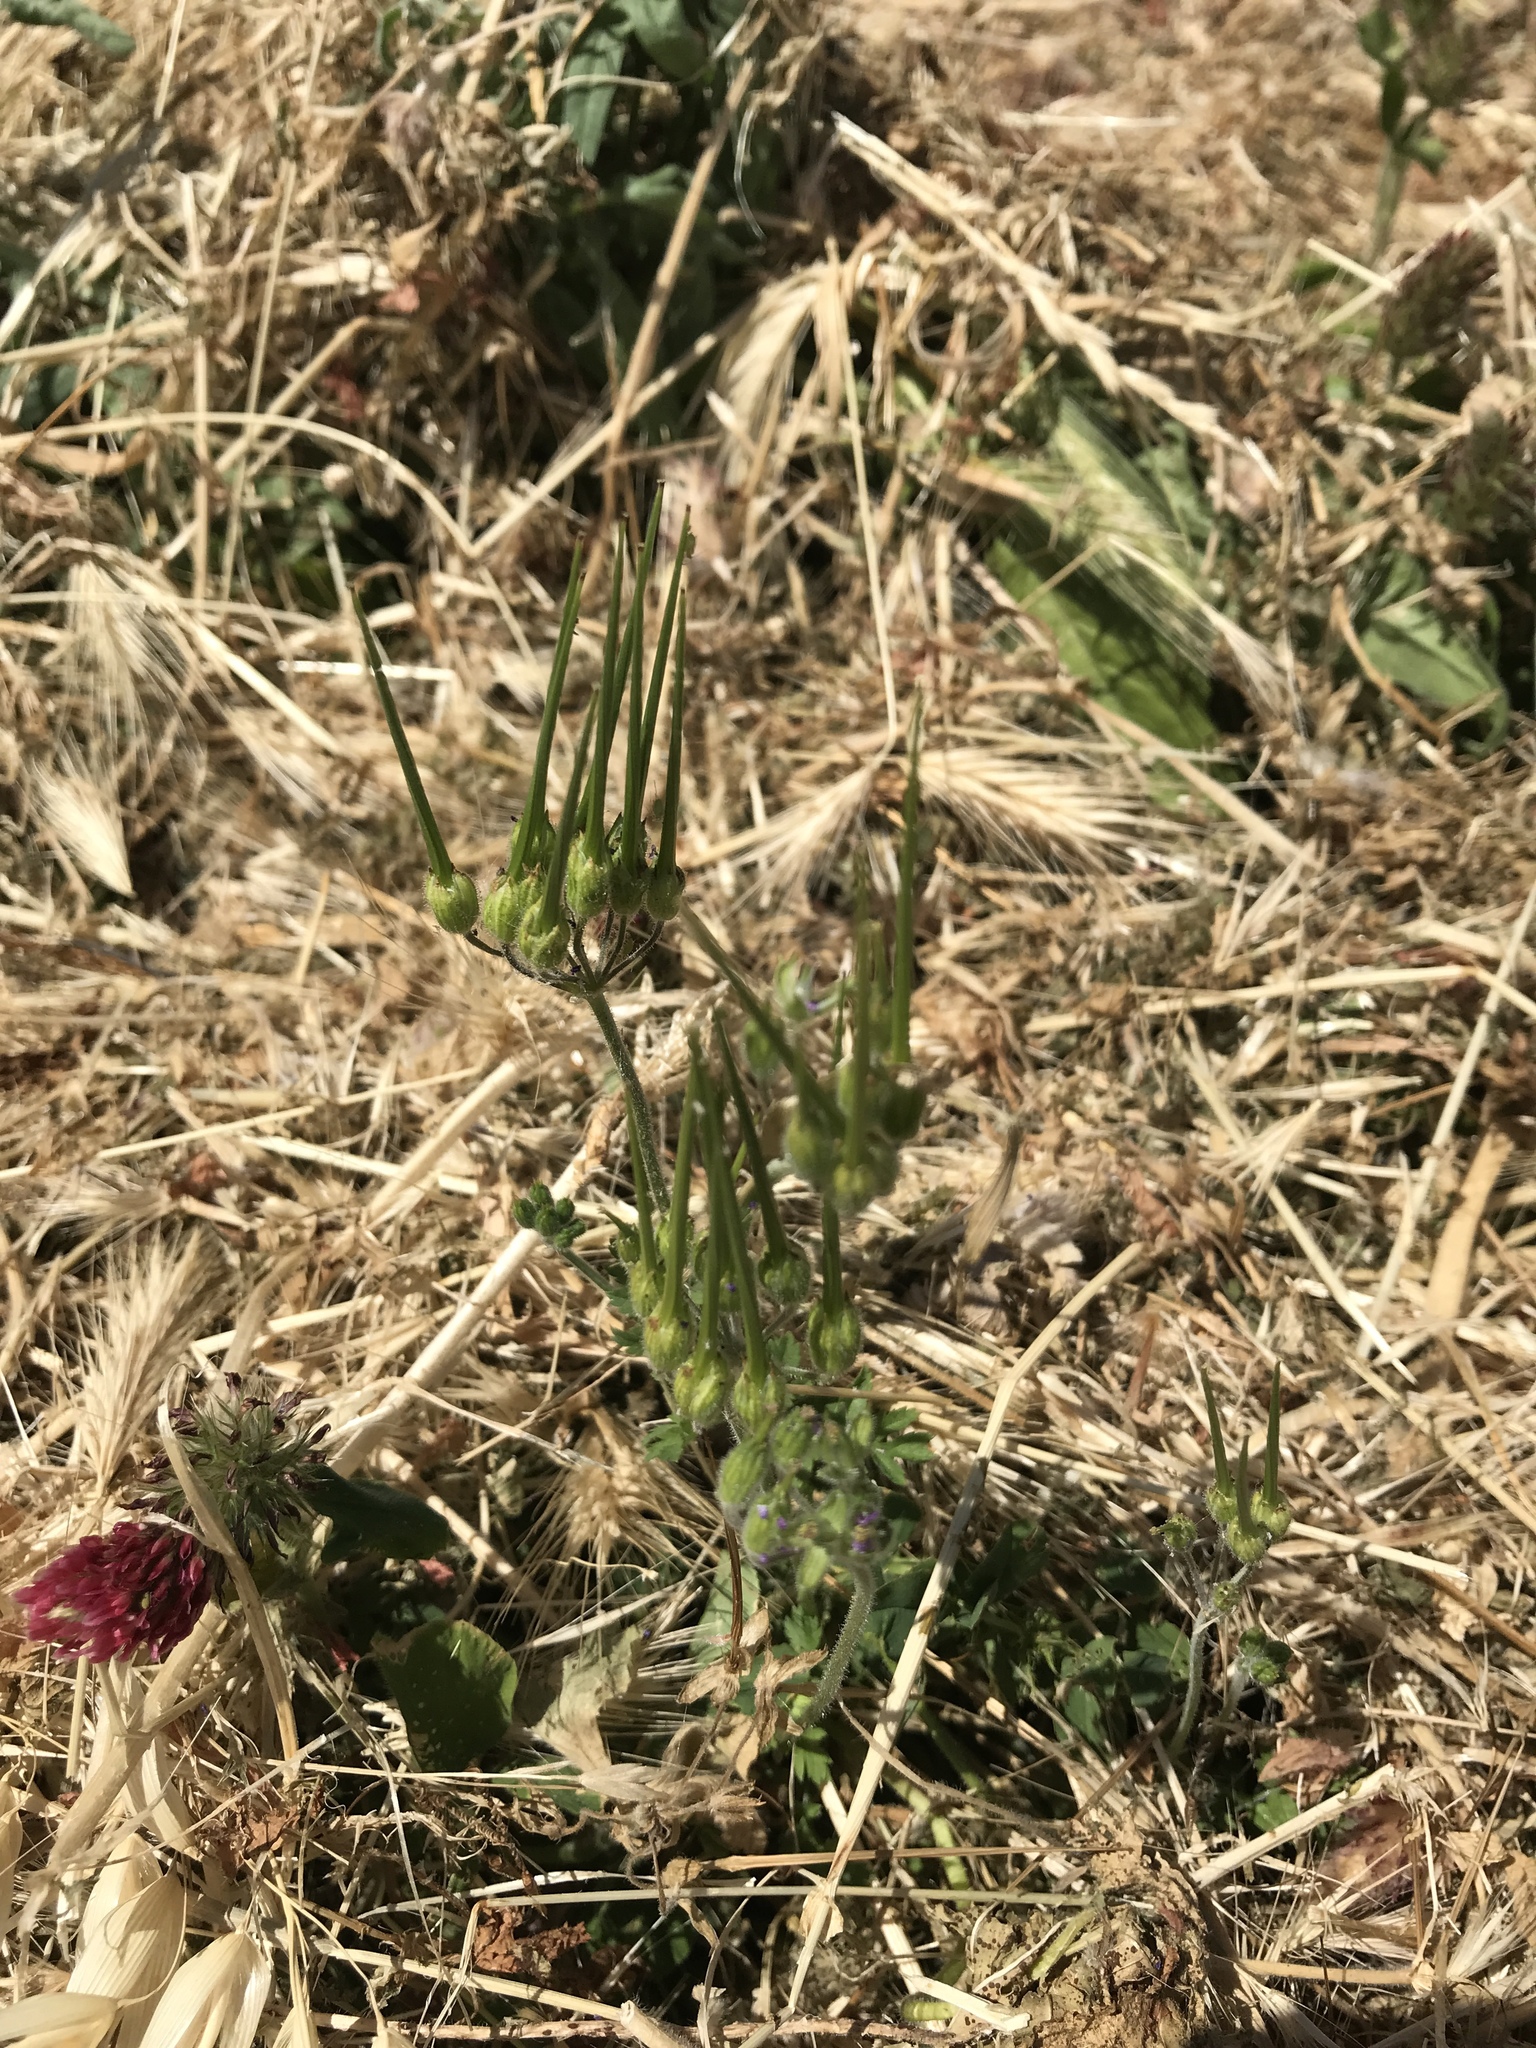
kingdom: Plantae
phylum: Tracheophyta
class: Magnoliopsida
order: Geraniales
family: Geraniaceae
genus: Erodium
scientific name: Erodium moschatum
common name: Musk stork's-bill
